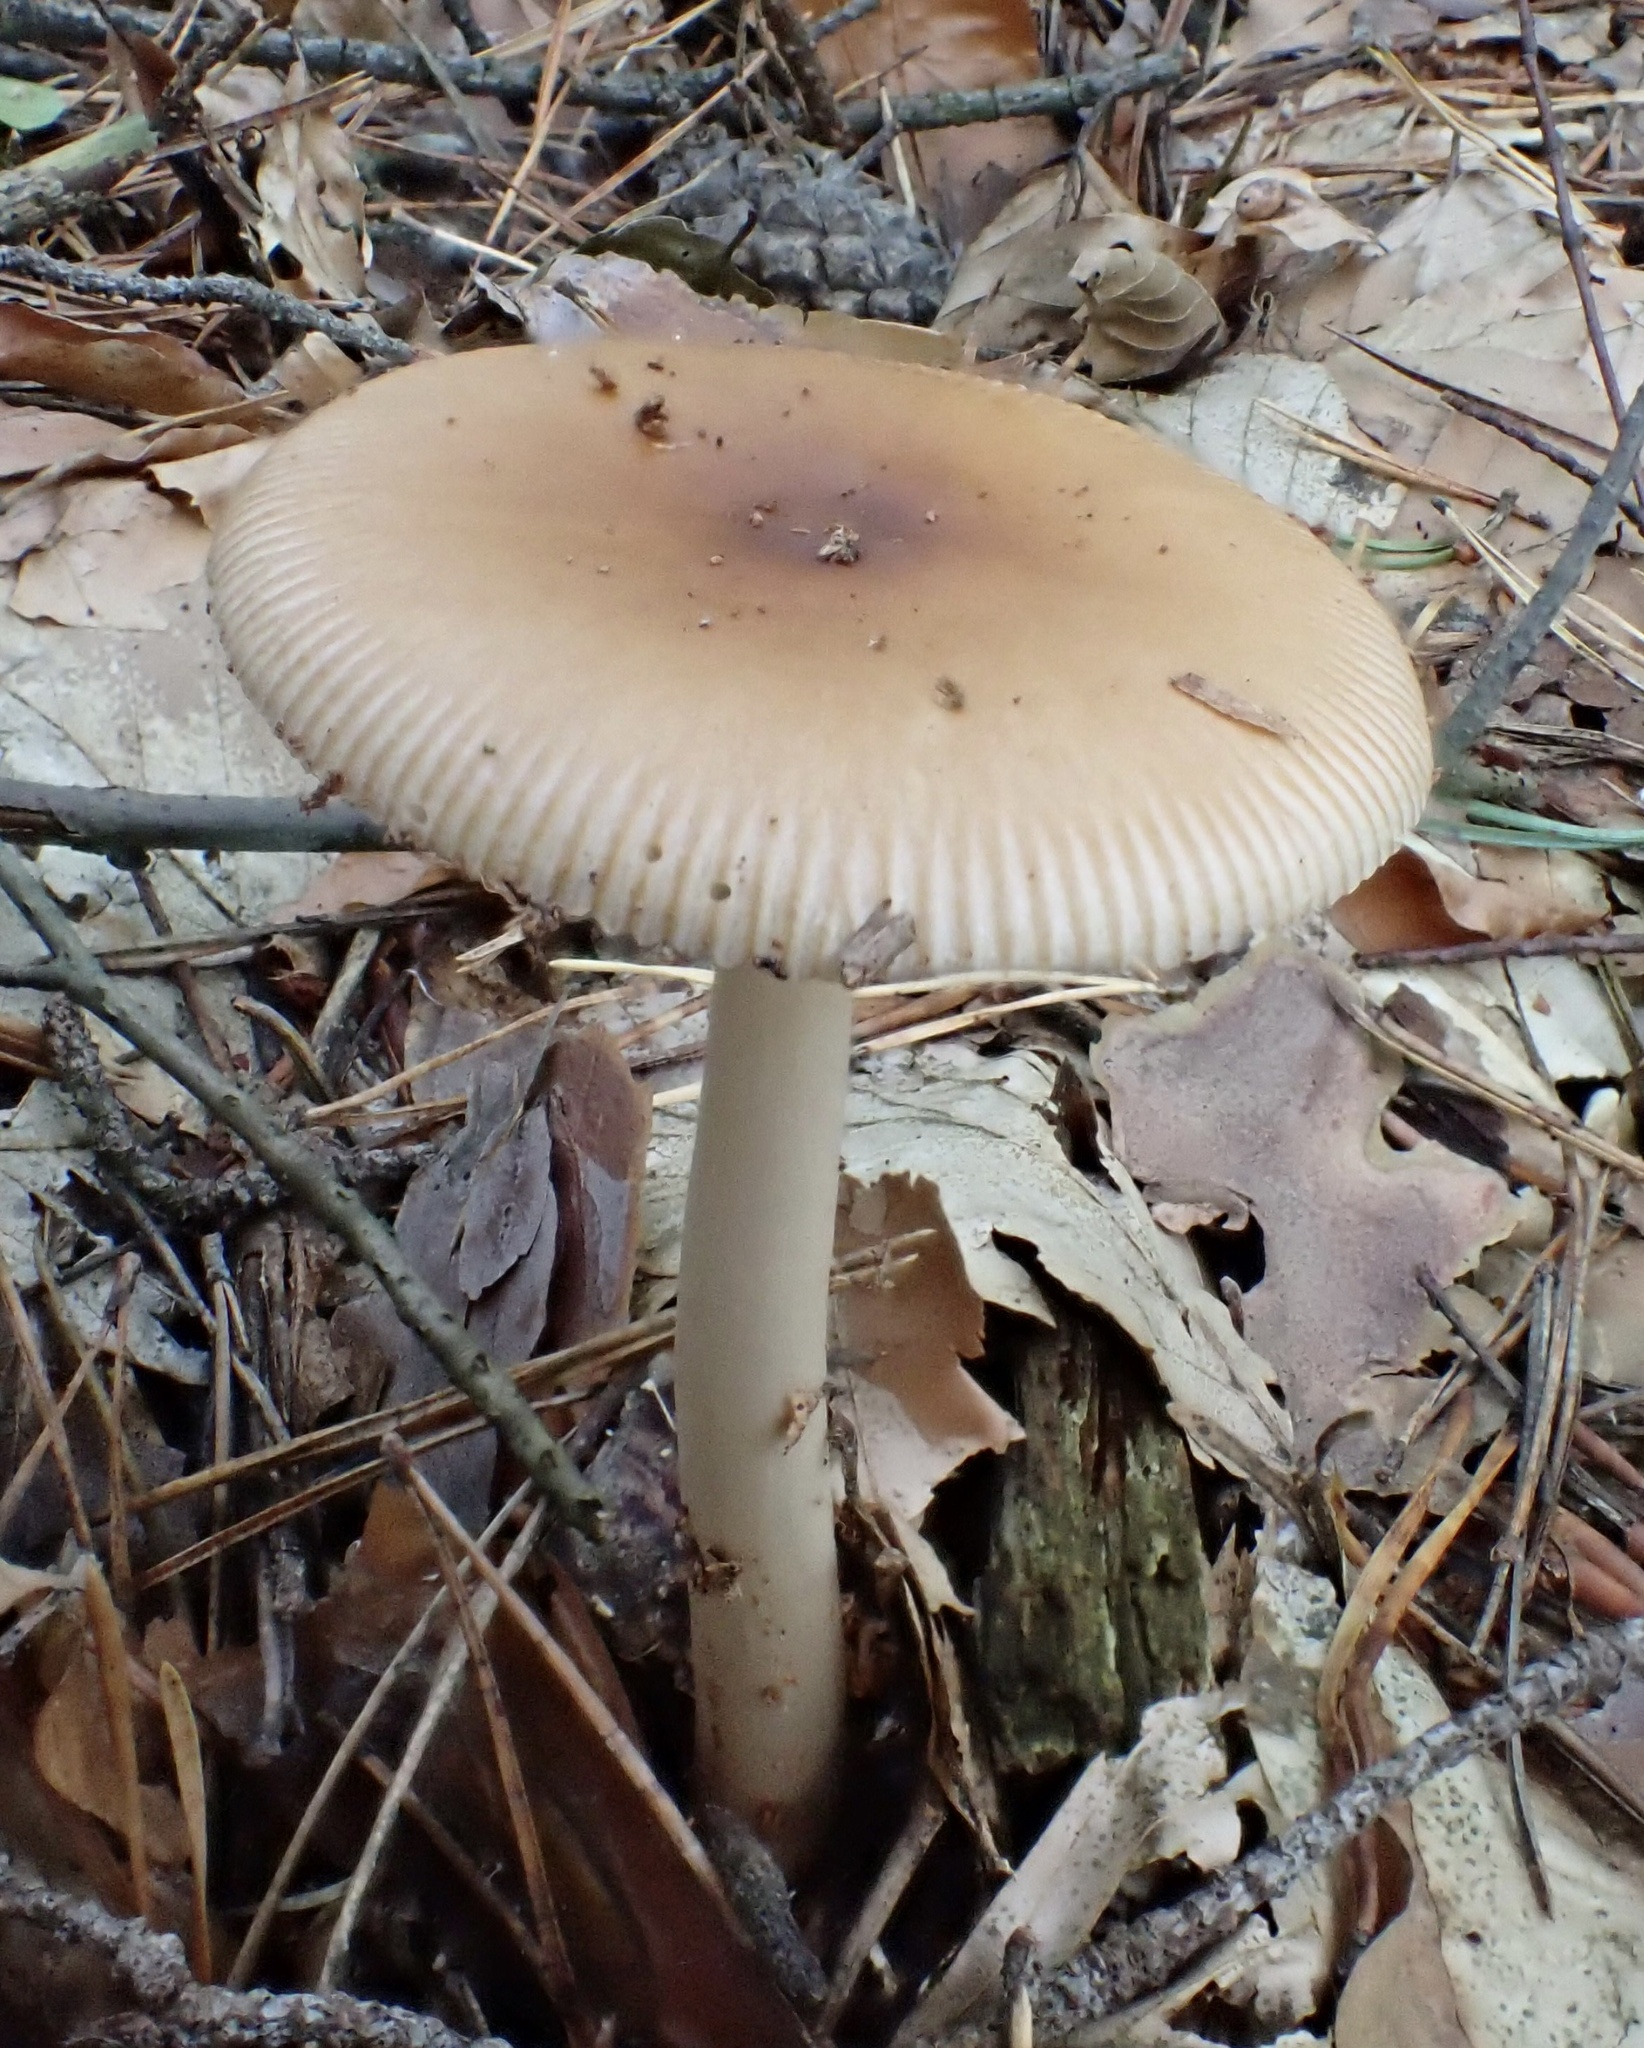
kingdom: Fungi
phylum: Basidiomycota
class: Agaricomycetes
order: Agaricales
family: Amanitaceae
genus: Amanita
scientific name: Amanita fulva
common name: Tawny grisette
